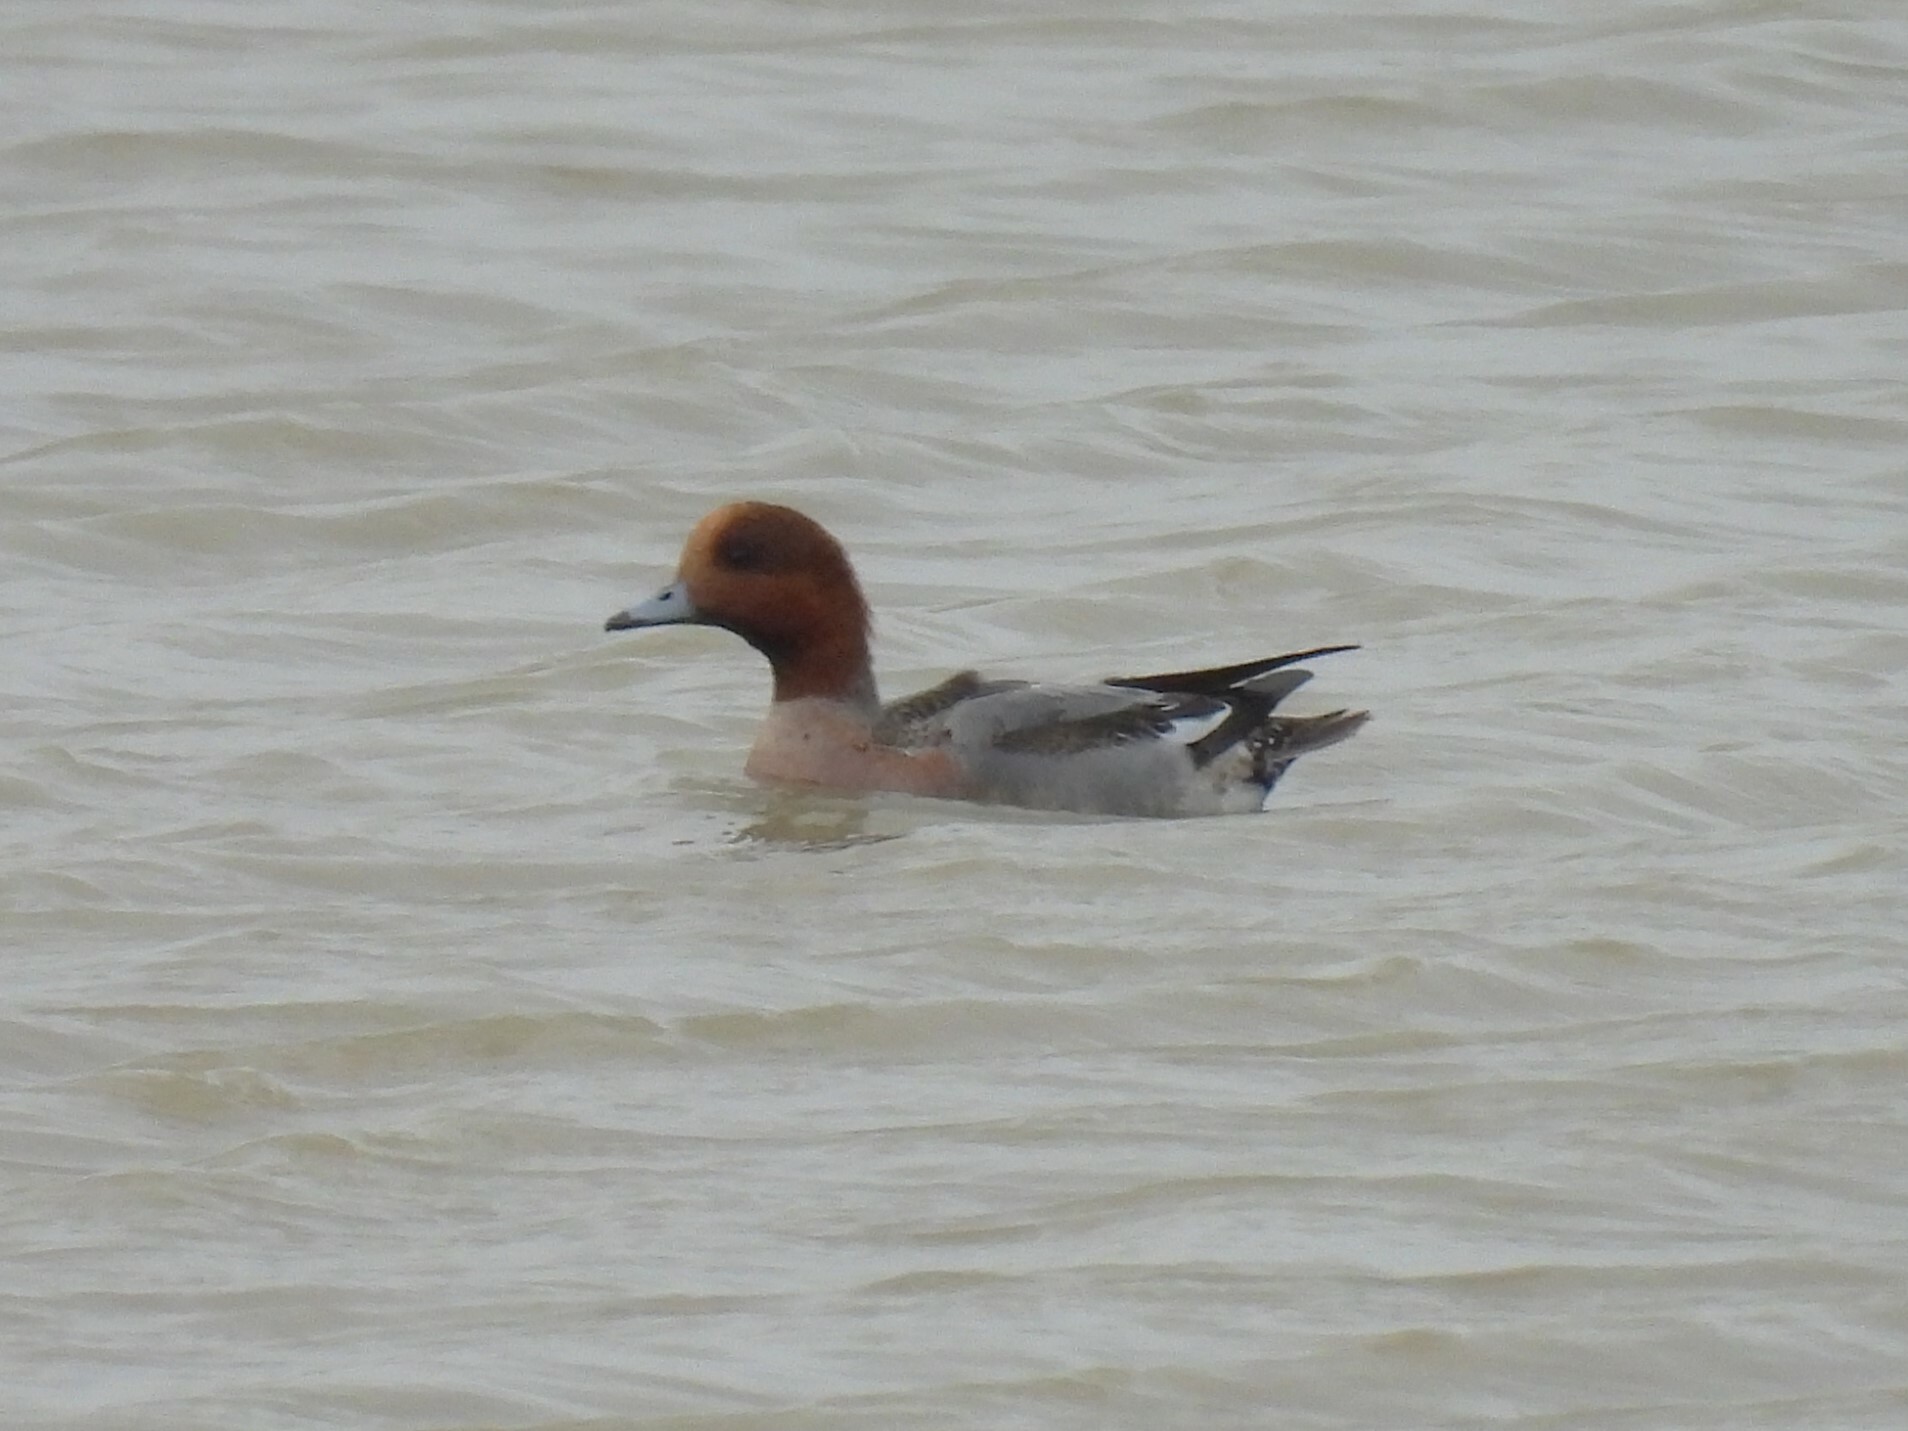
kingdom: Animalia
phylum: Chordata
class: Aves
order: Anseriformes
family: Anatidae
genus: Mareca
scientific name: Mareca penelope
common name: Eurasian wigeon
